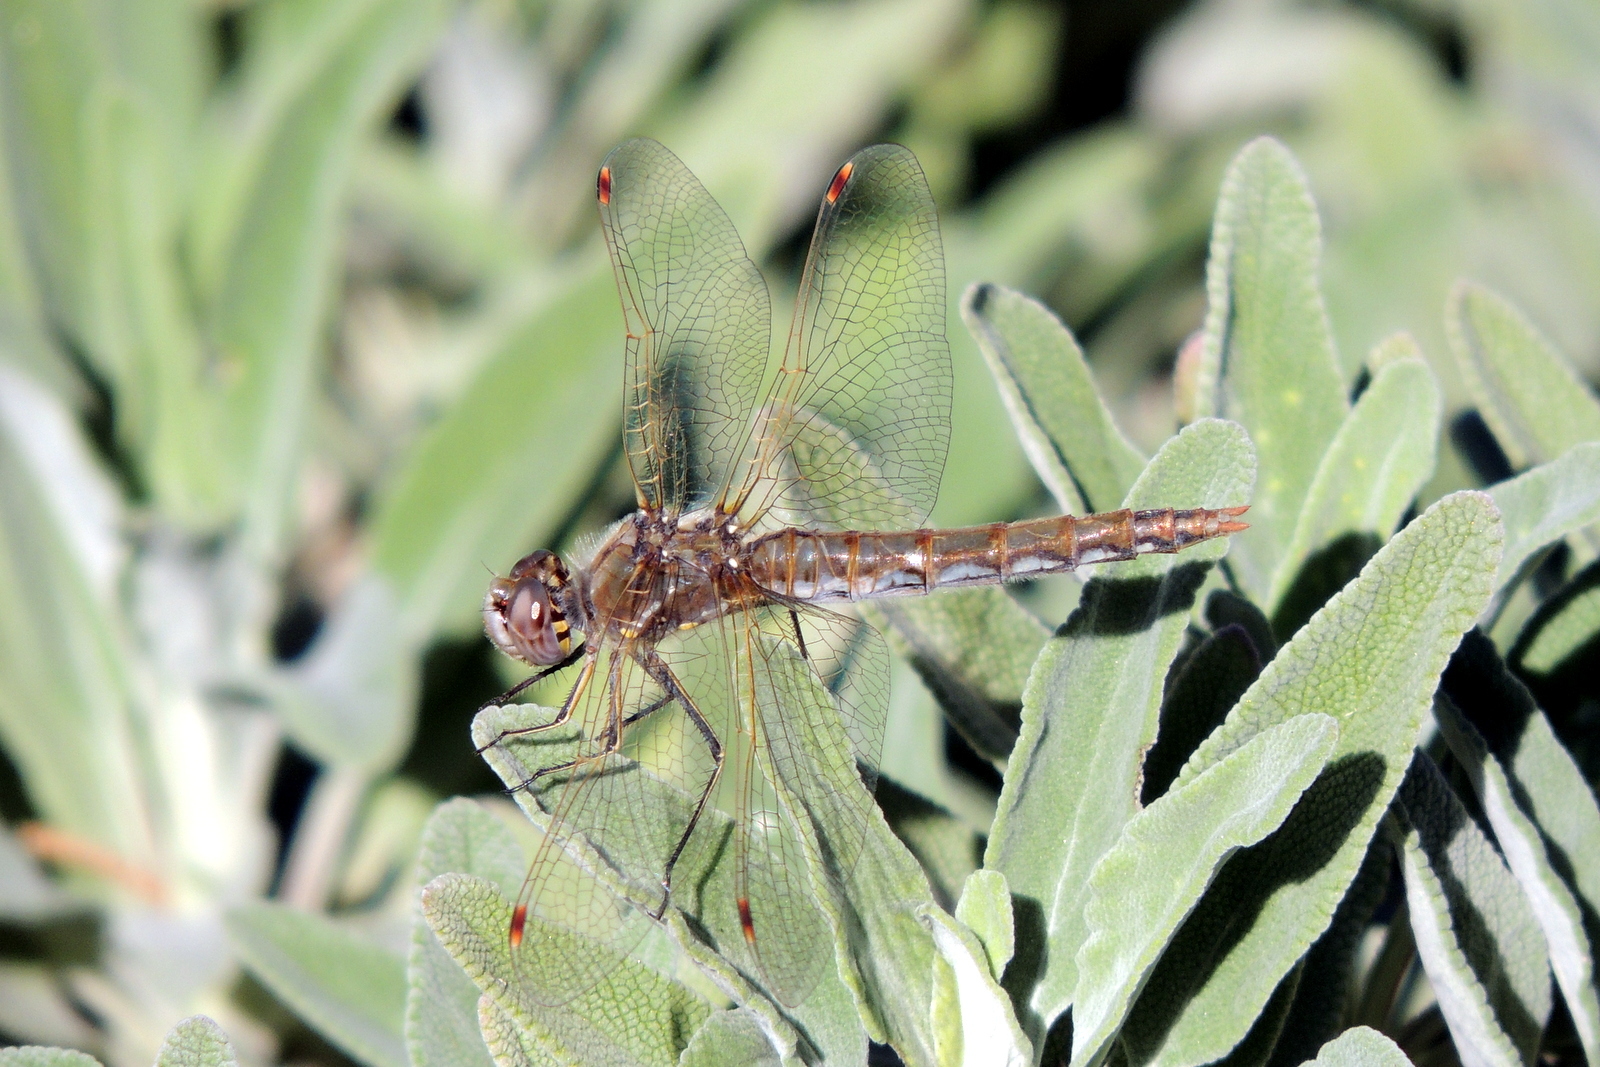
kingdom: Animalia
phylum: Arthropoda
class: Insecta
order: Odonata
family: Libellulidae
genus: Sympetrum
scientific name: Sympetrum corruptum
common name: Variegated meadowhawk
